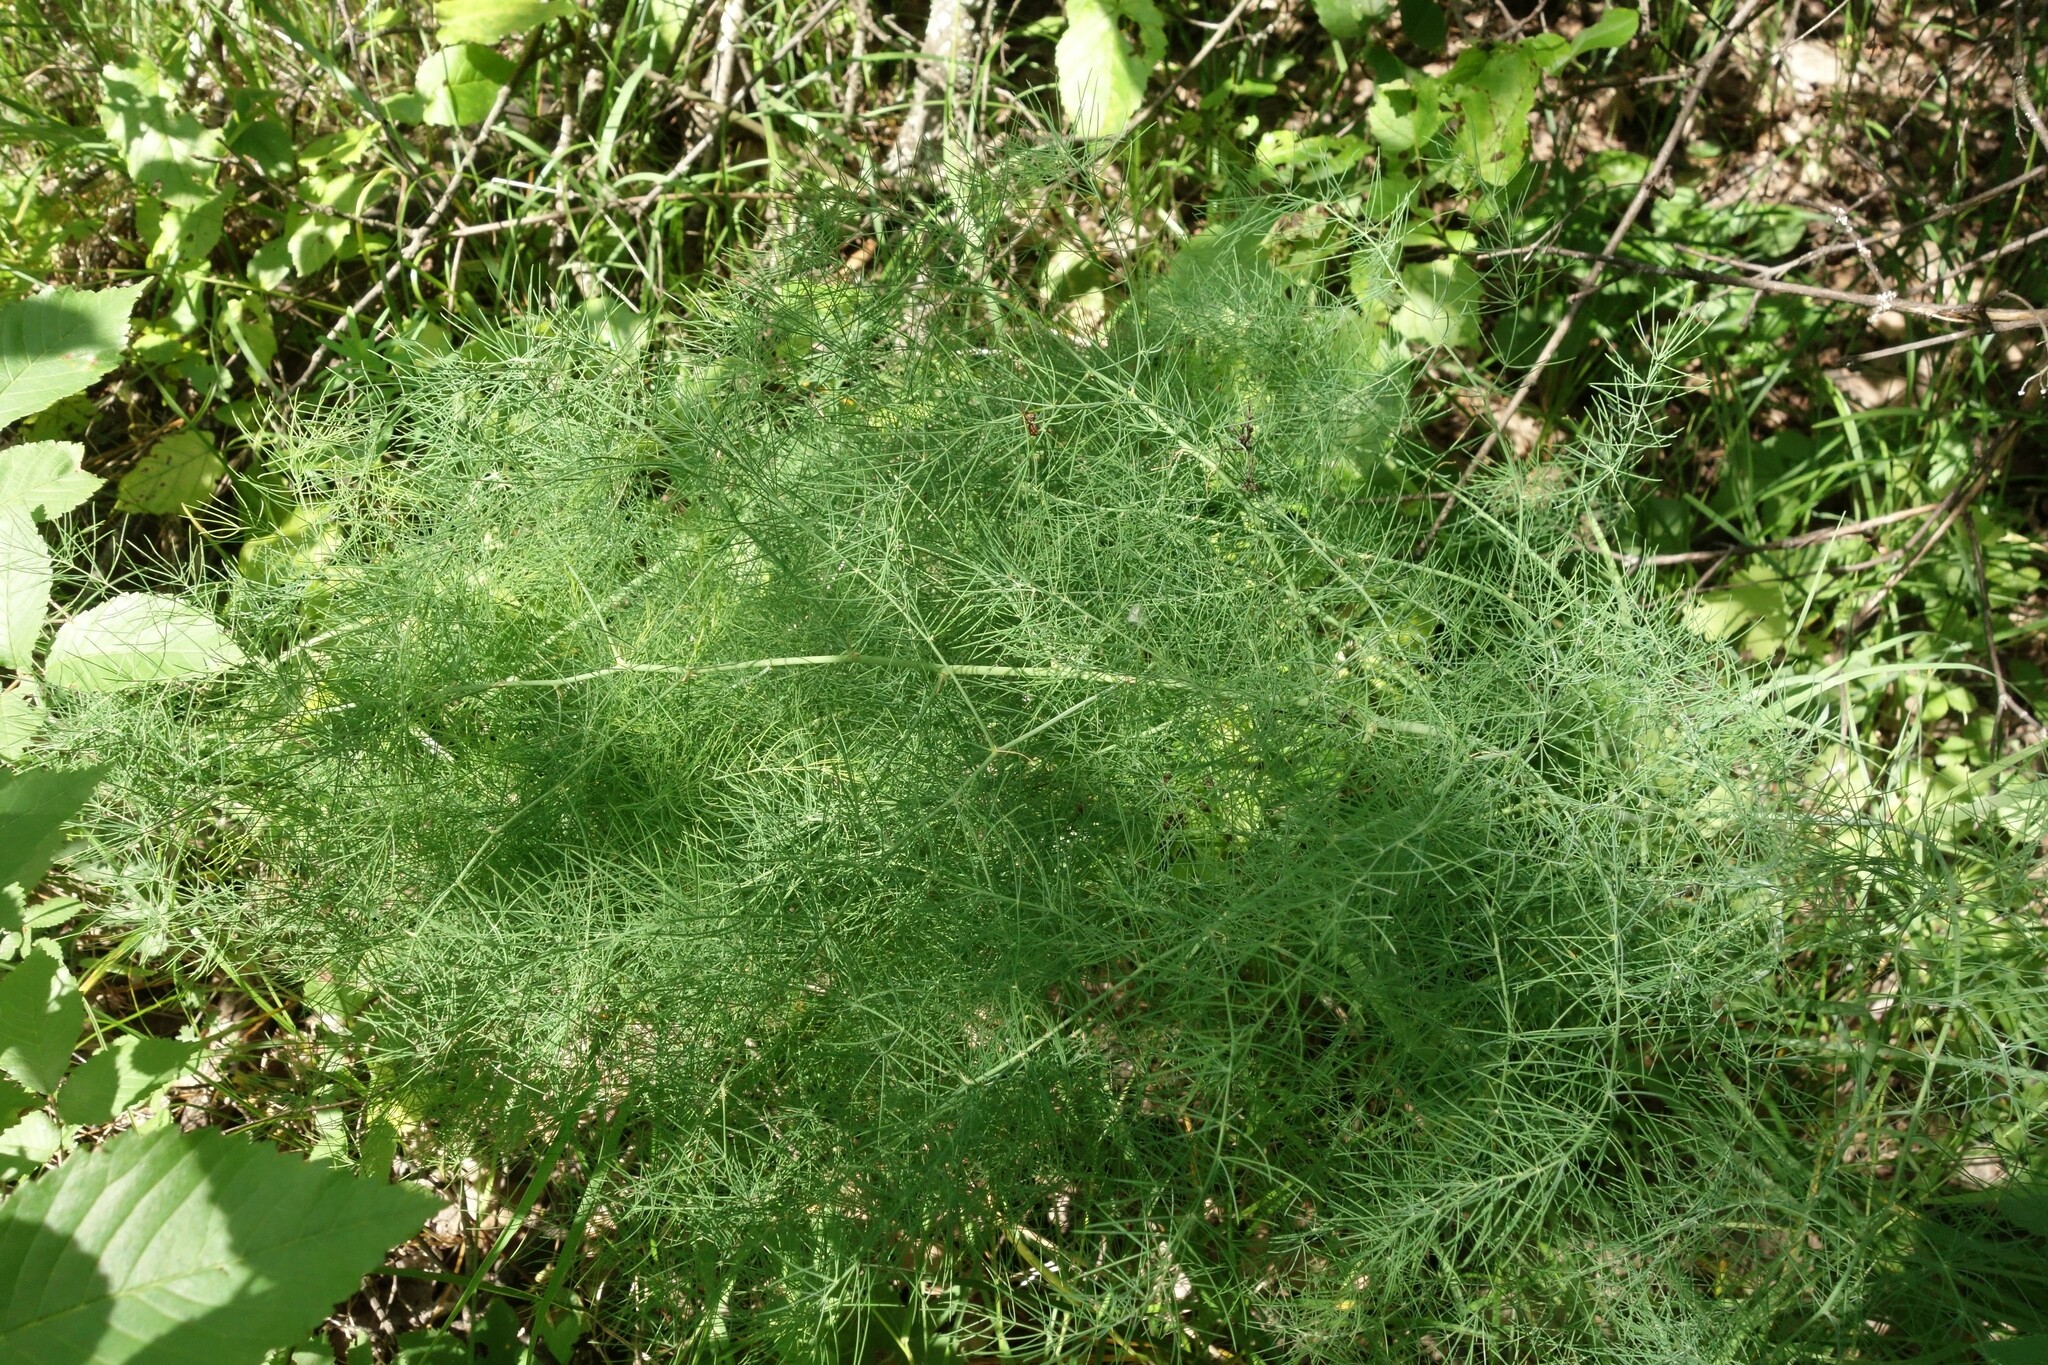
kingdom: Plantae
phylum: Tracheophyta
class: Liliopsida
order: Asparagales
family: Asparagaceae
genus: Asparagus
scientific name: Asparagus officinalis
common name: Garden asparagus
